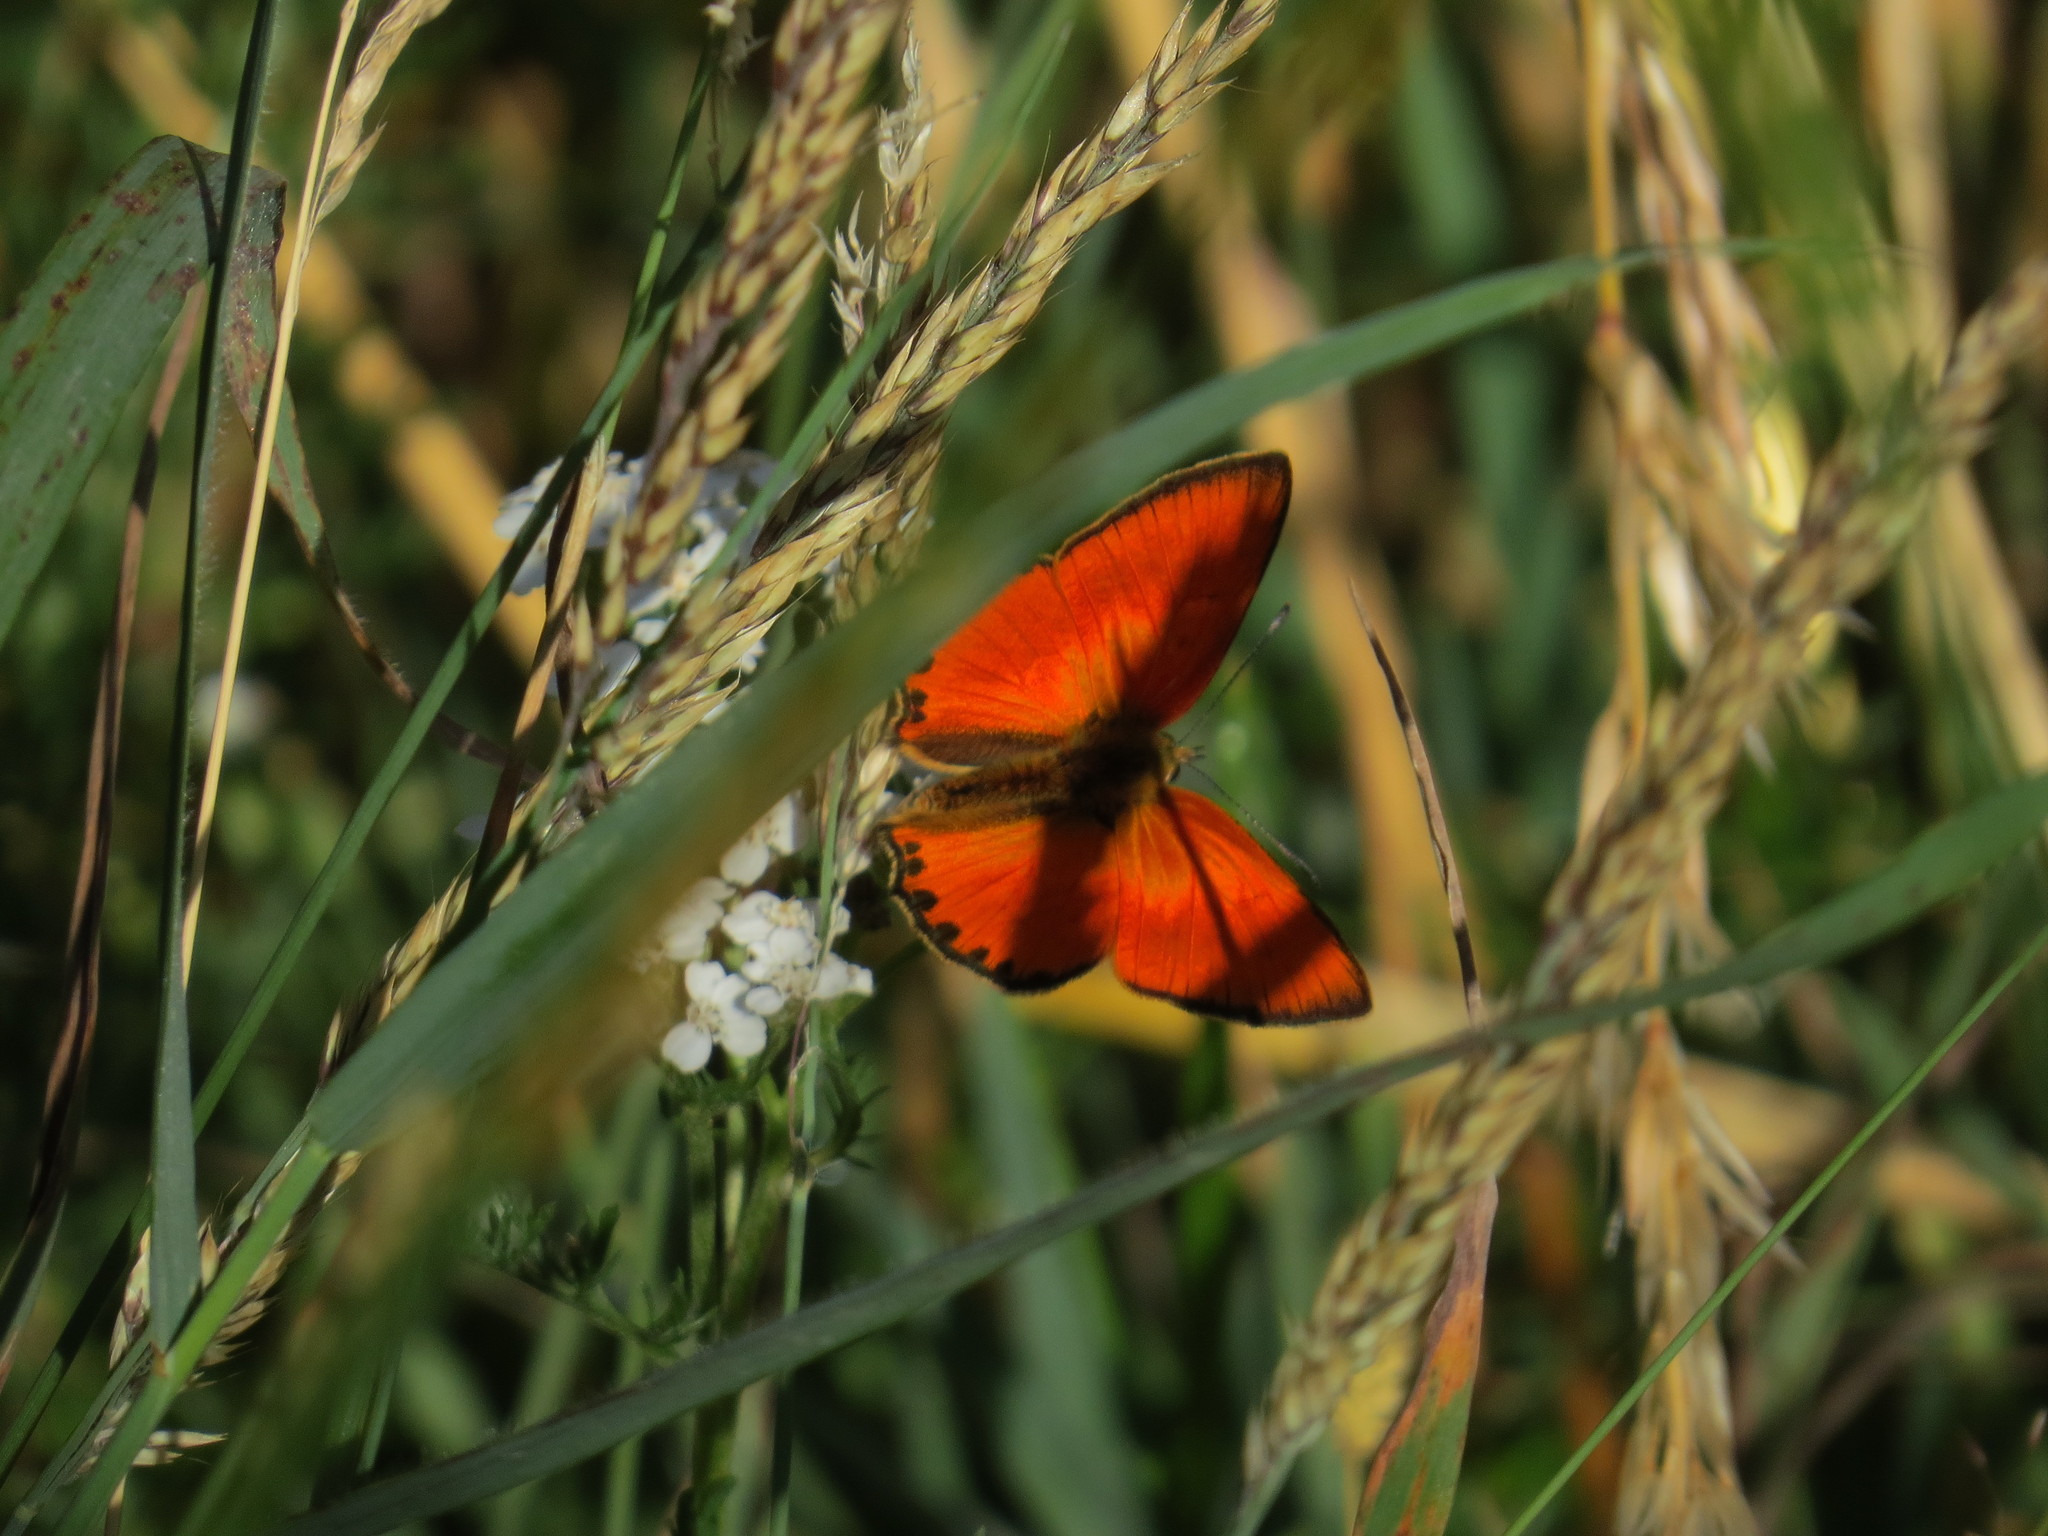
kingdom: Animalia
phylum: Arthropoda
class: Insecta
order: Lepidoptera
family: Lycaenidae
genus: Lycaena
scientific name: Lycaena virgaureae
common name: Scarce copper
